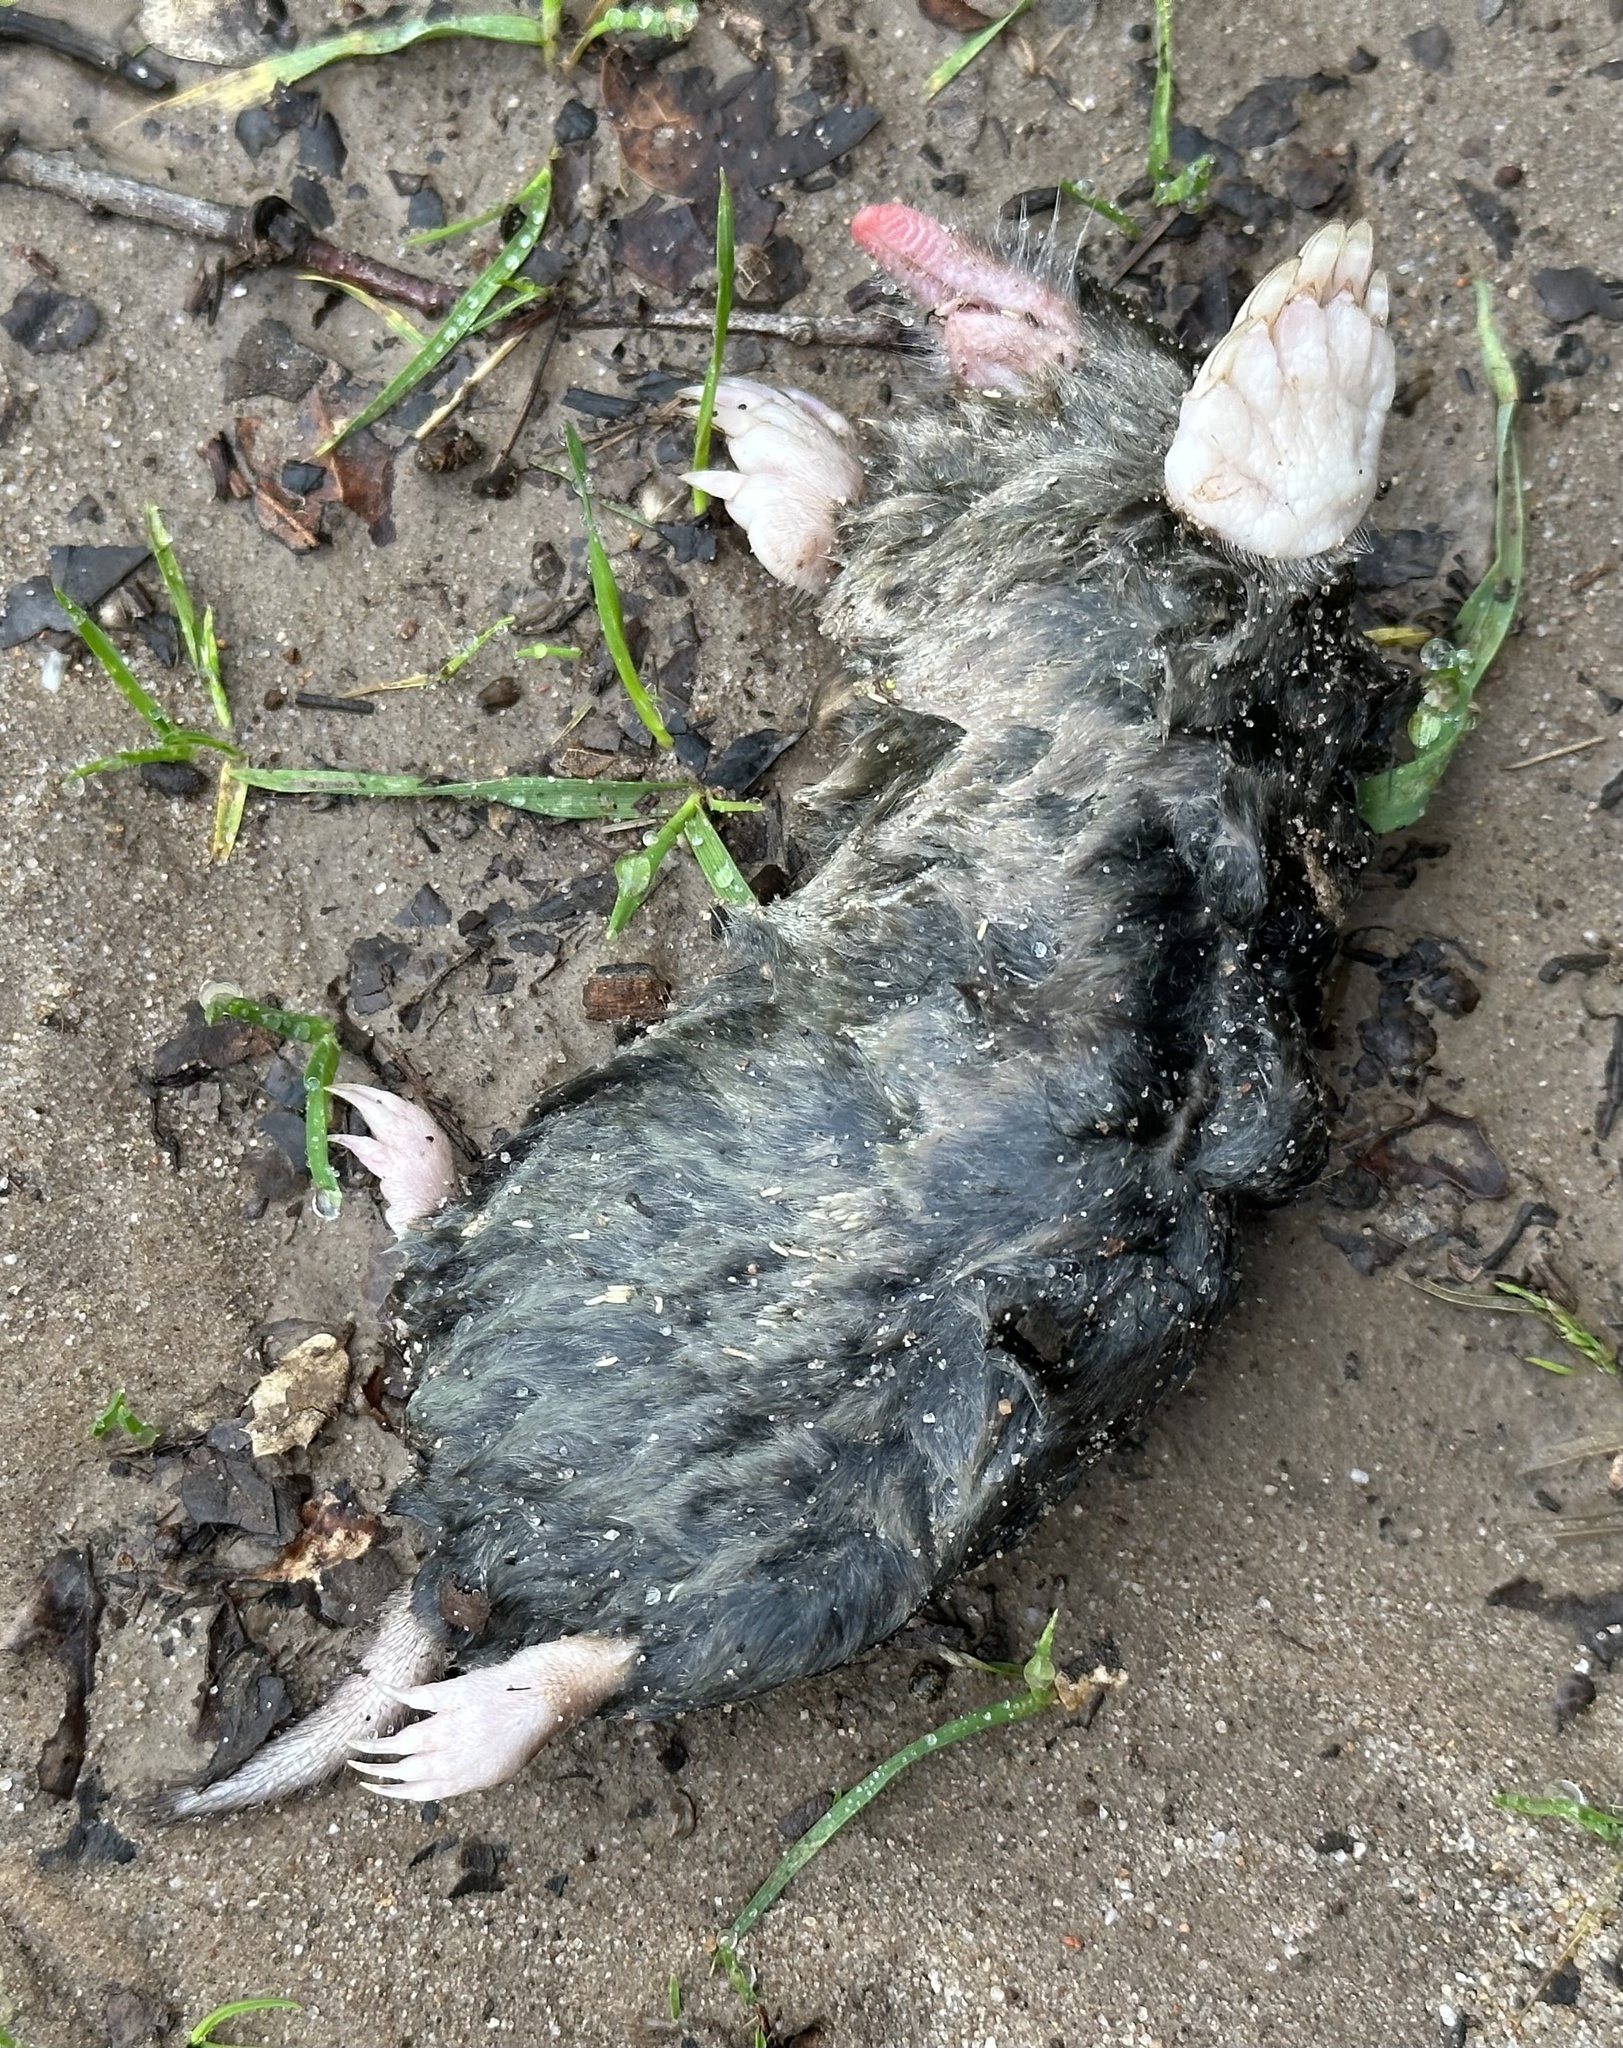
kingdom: Animalia
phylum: Chordata
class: Mammalia
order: Soricomorpha
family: Talpidae
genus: Scapanus
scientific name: Scapanus latimanus
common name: Broad-footed mole
